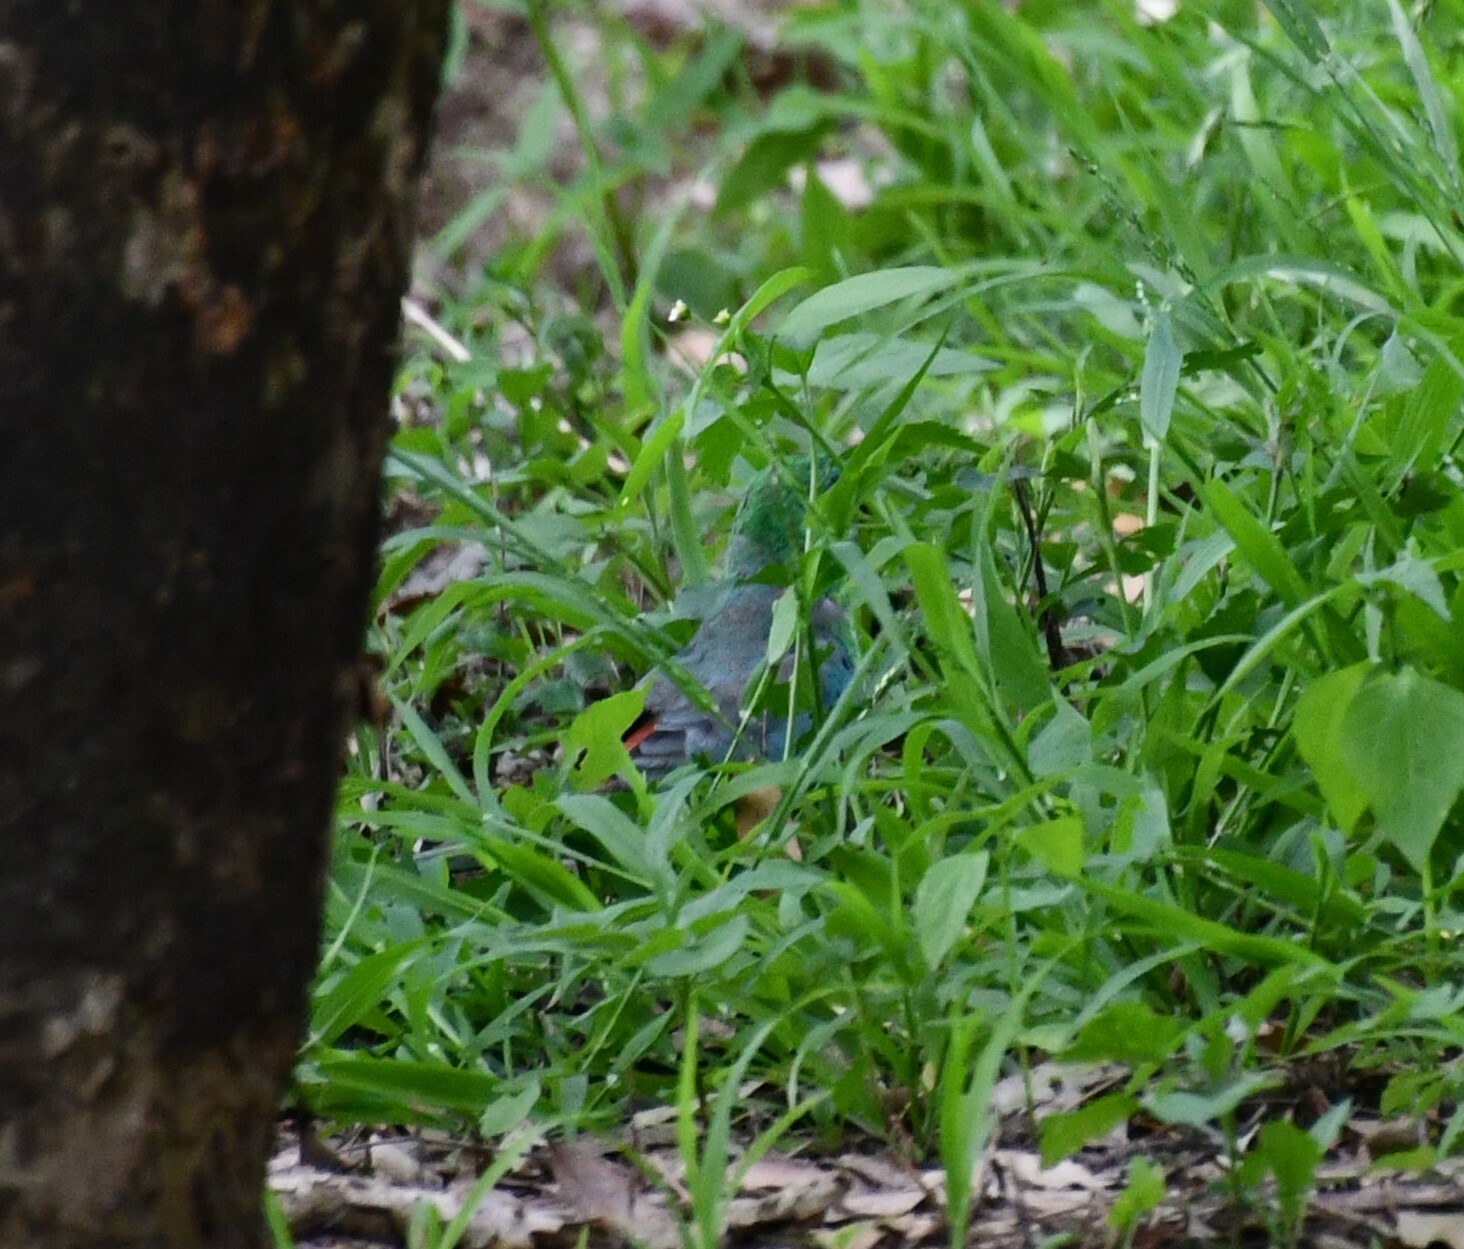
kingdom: Animalia
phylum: Chordata
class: Aves
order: Psittaciformes
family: Psittacidae
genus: Psephotus
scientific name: Psephotus haematonotus
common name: Red-rumped parrot
